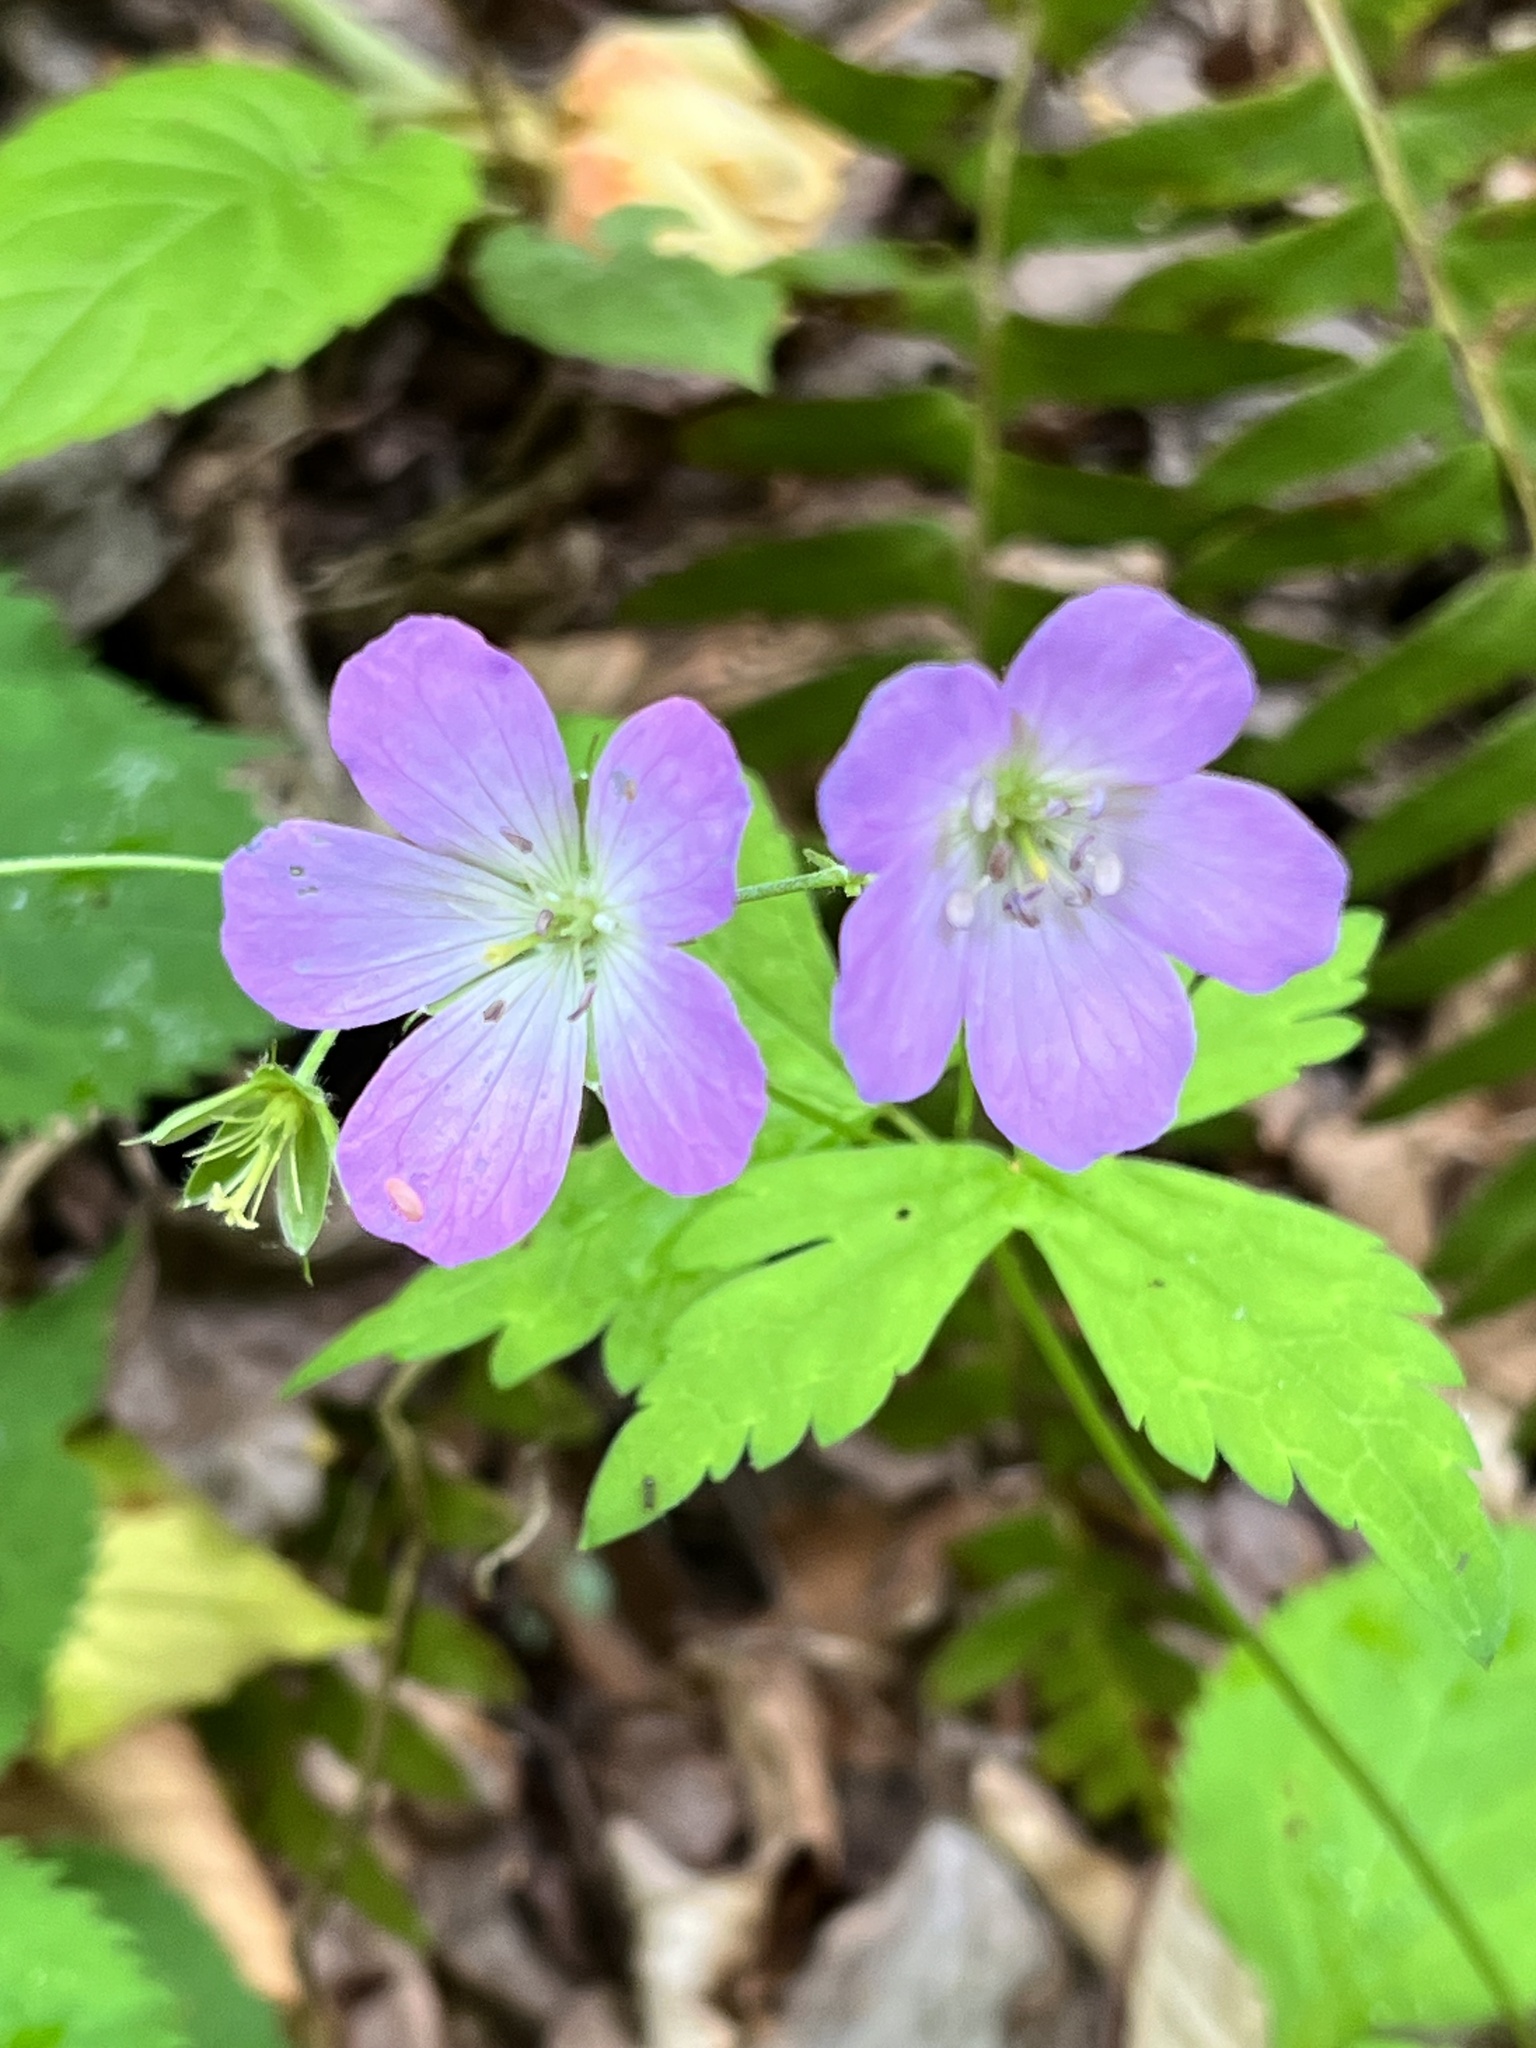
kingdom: Plantae
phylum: Tracheophyta
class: Magnoliopsida
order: Geraniales
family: Geraniaceae
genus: Geranium
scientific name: Geranium maculatum
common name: Spotted geranium
